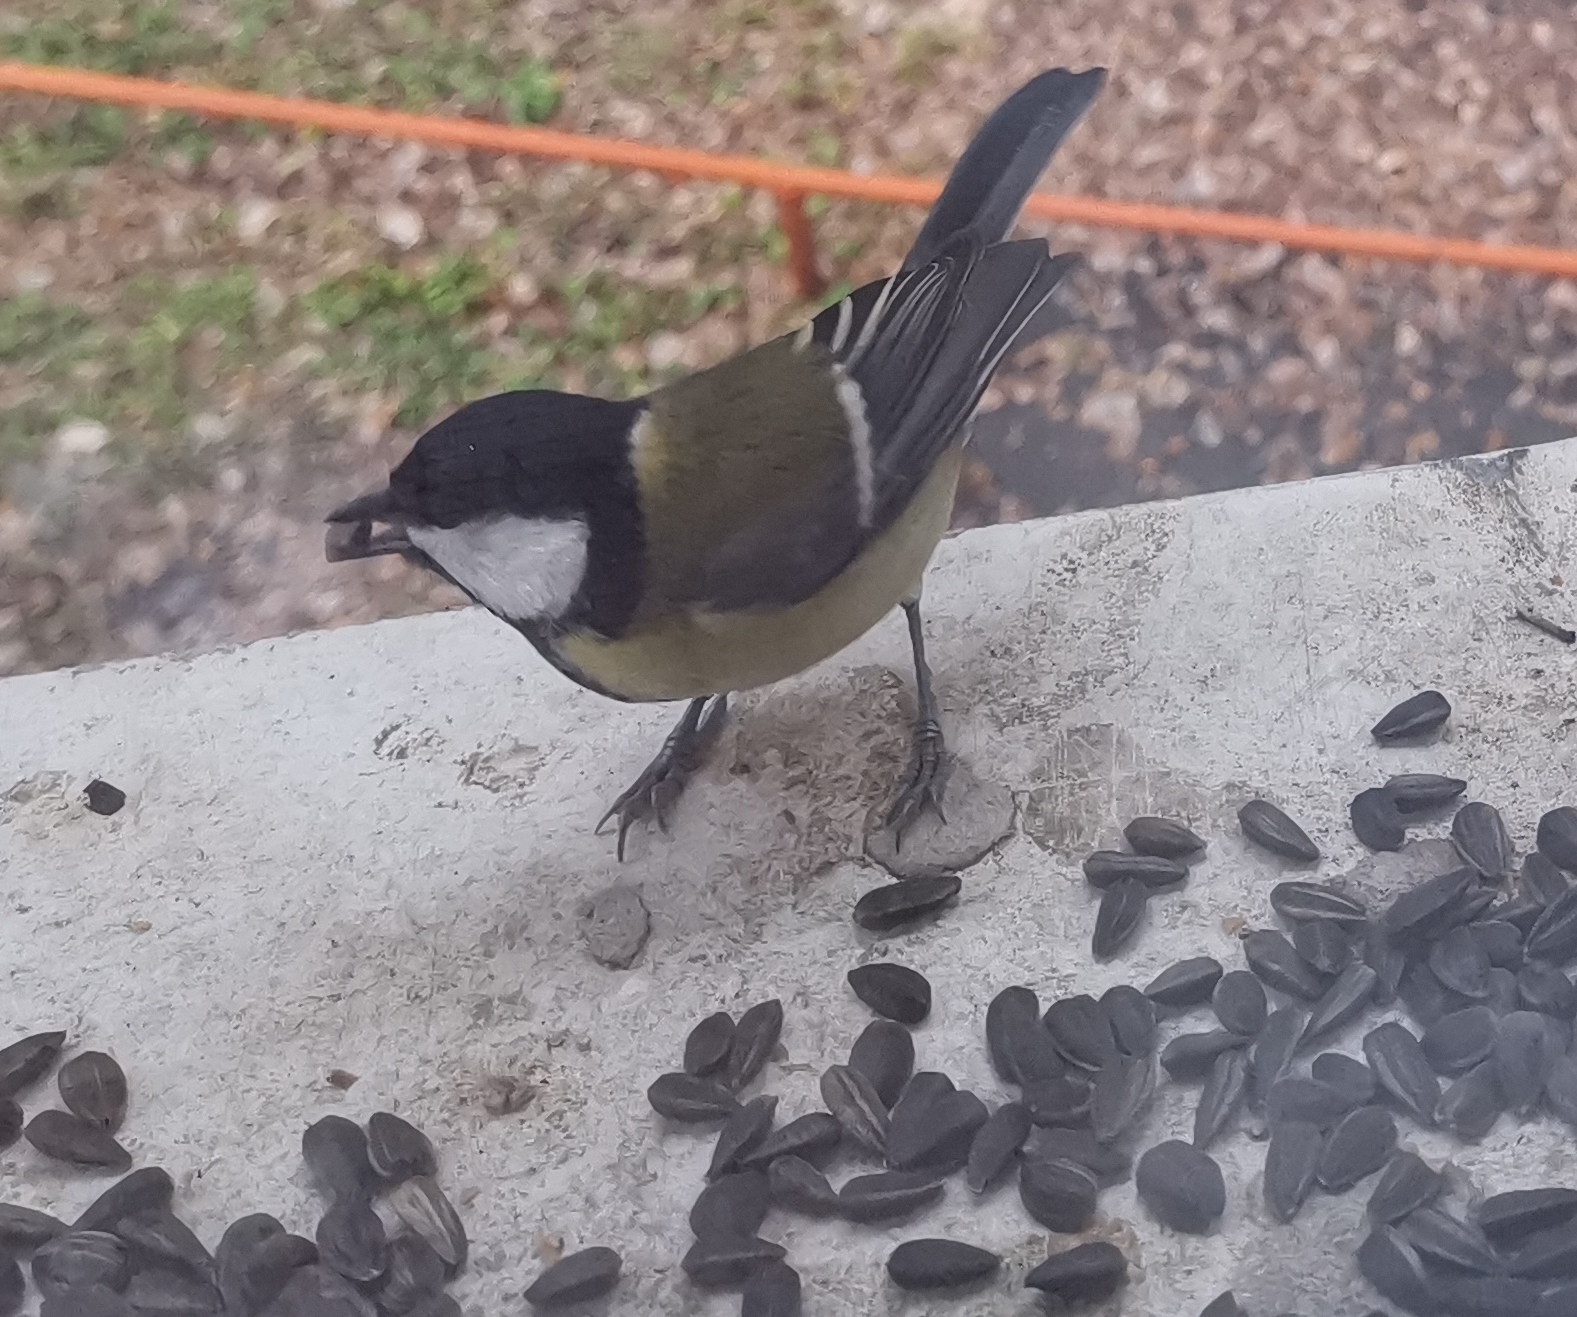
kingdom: Animalia
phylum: Chordata
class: Aves
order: Passeriformes
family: Paridae
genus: Parus
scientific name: Parus major
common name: Great tit
